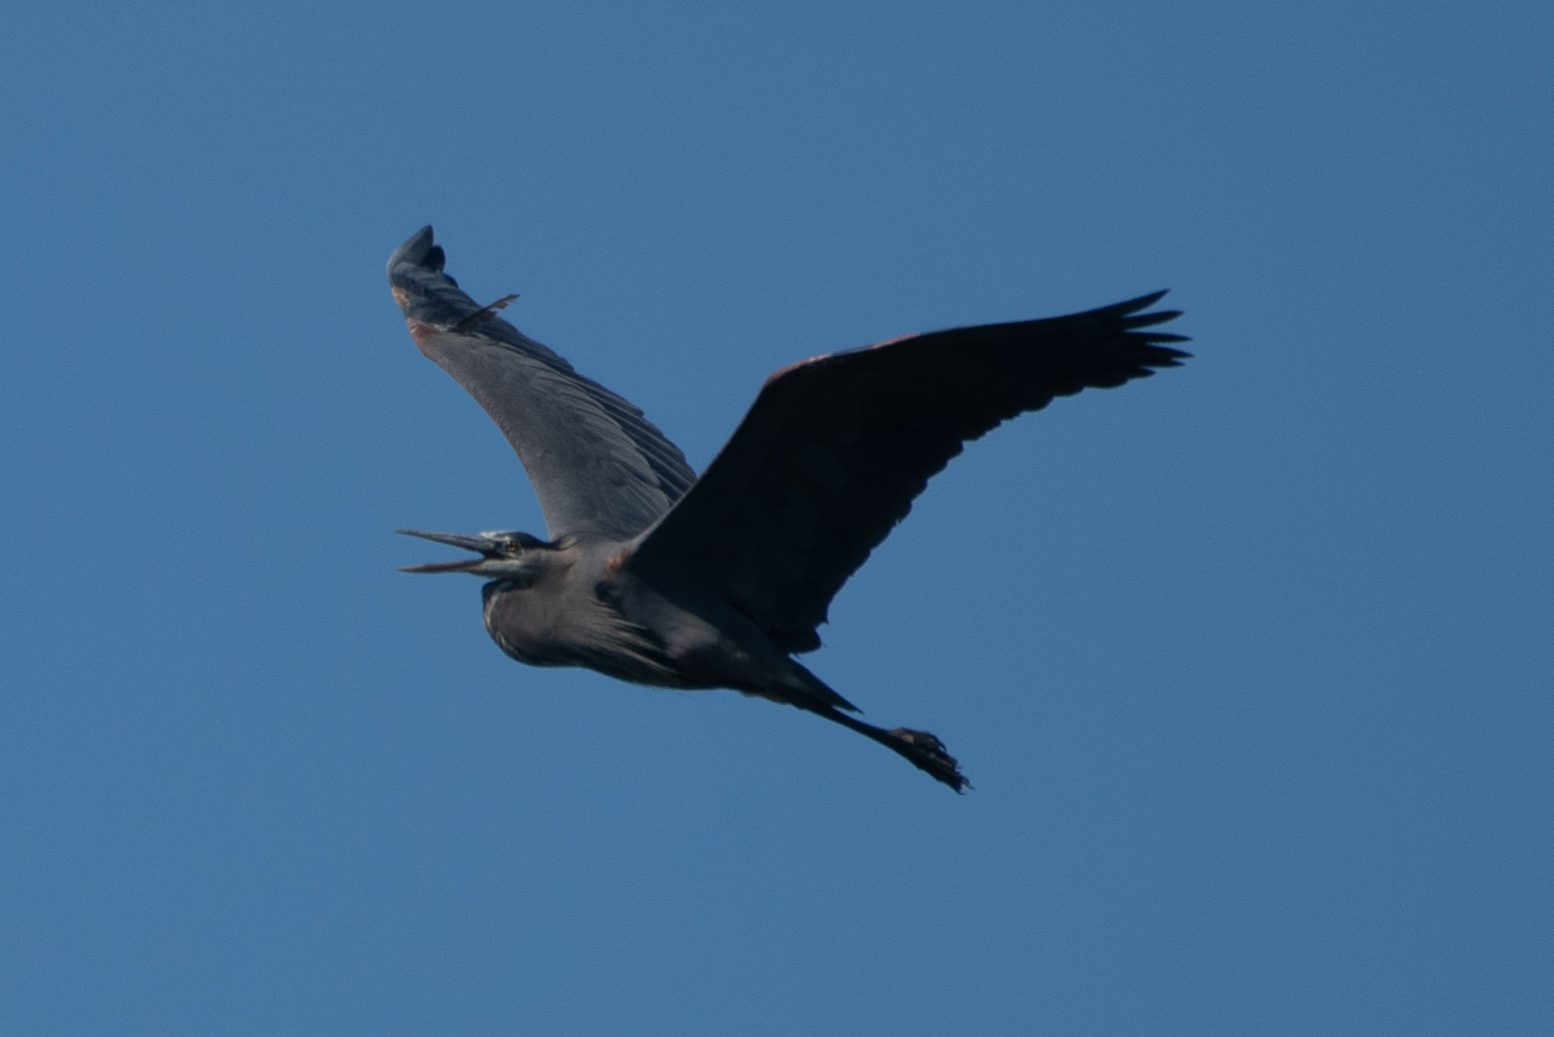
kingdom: Animalia
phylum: Chordata
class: Aves
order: Pelecaniformes
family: Ardeidae
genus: Ardea
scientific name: Ardea herodias
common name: Great blue heron
